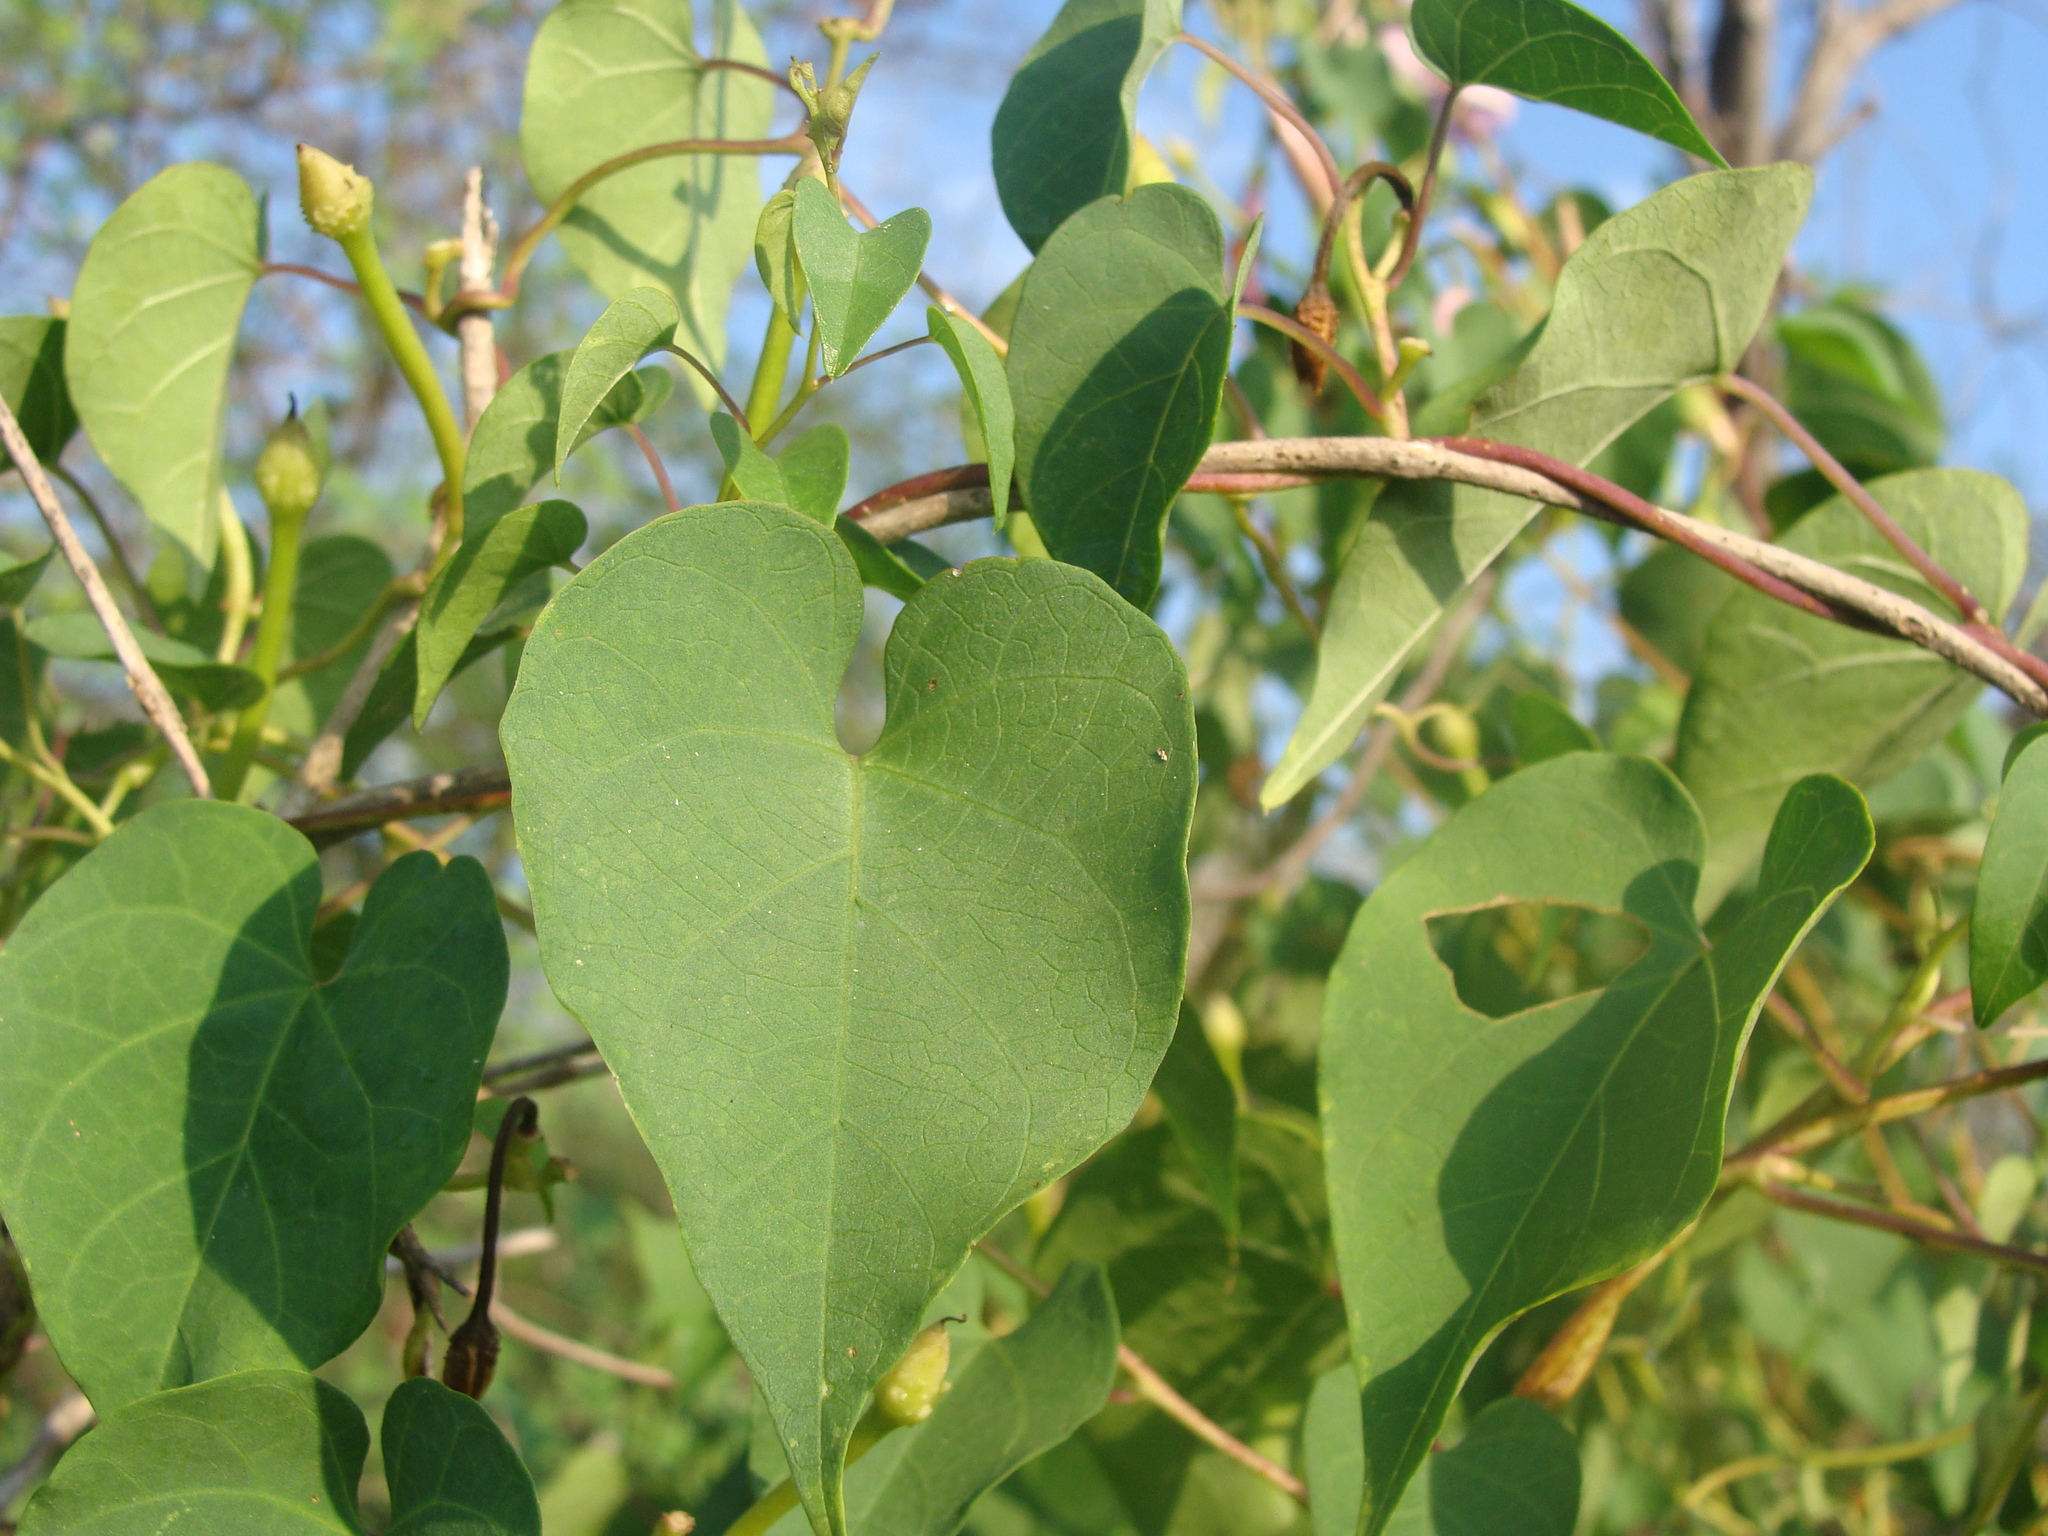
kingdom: Plantae
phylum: Tracheophyta
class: Magnoliopsida
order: Solanales
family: Convolvulaceae
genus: Ipomoea
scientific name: Ipomoea pedicellaris
